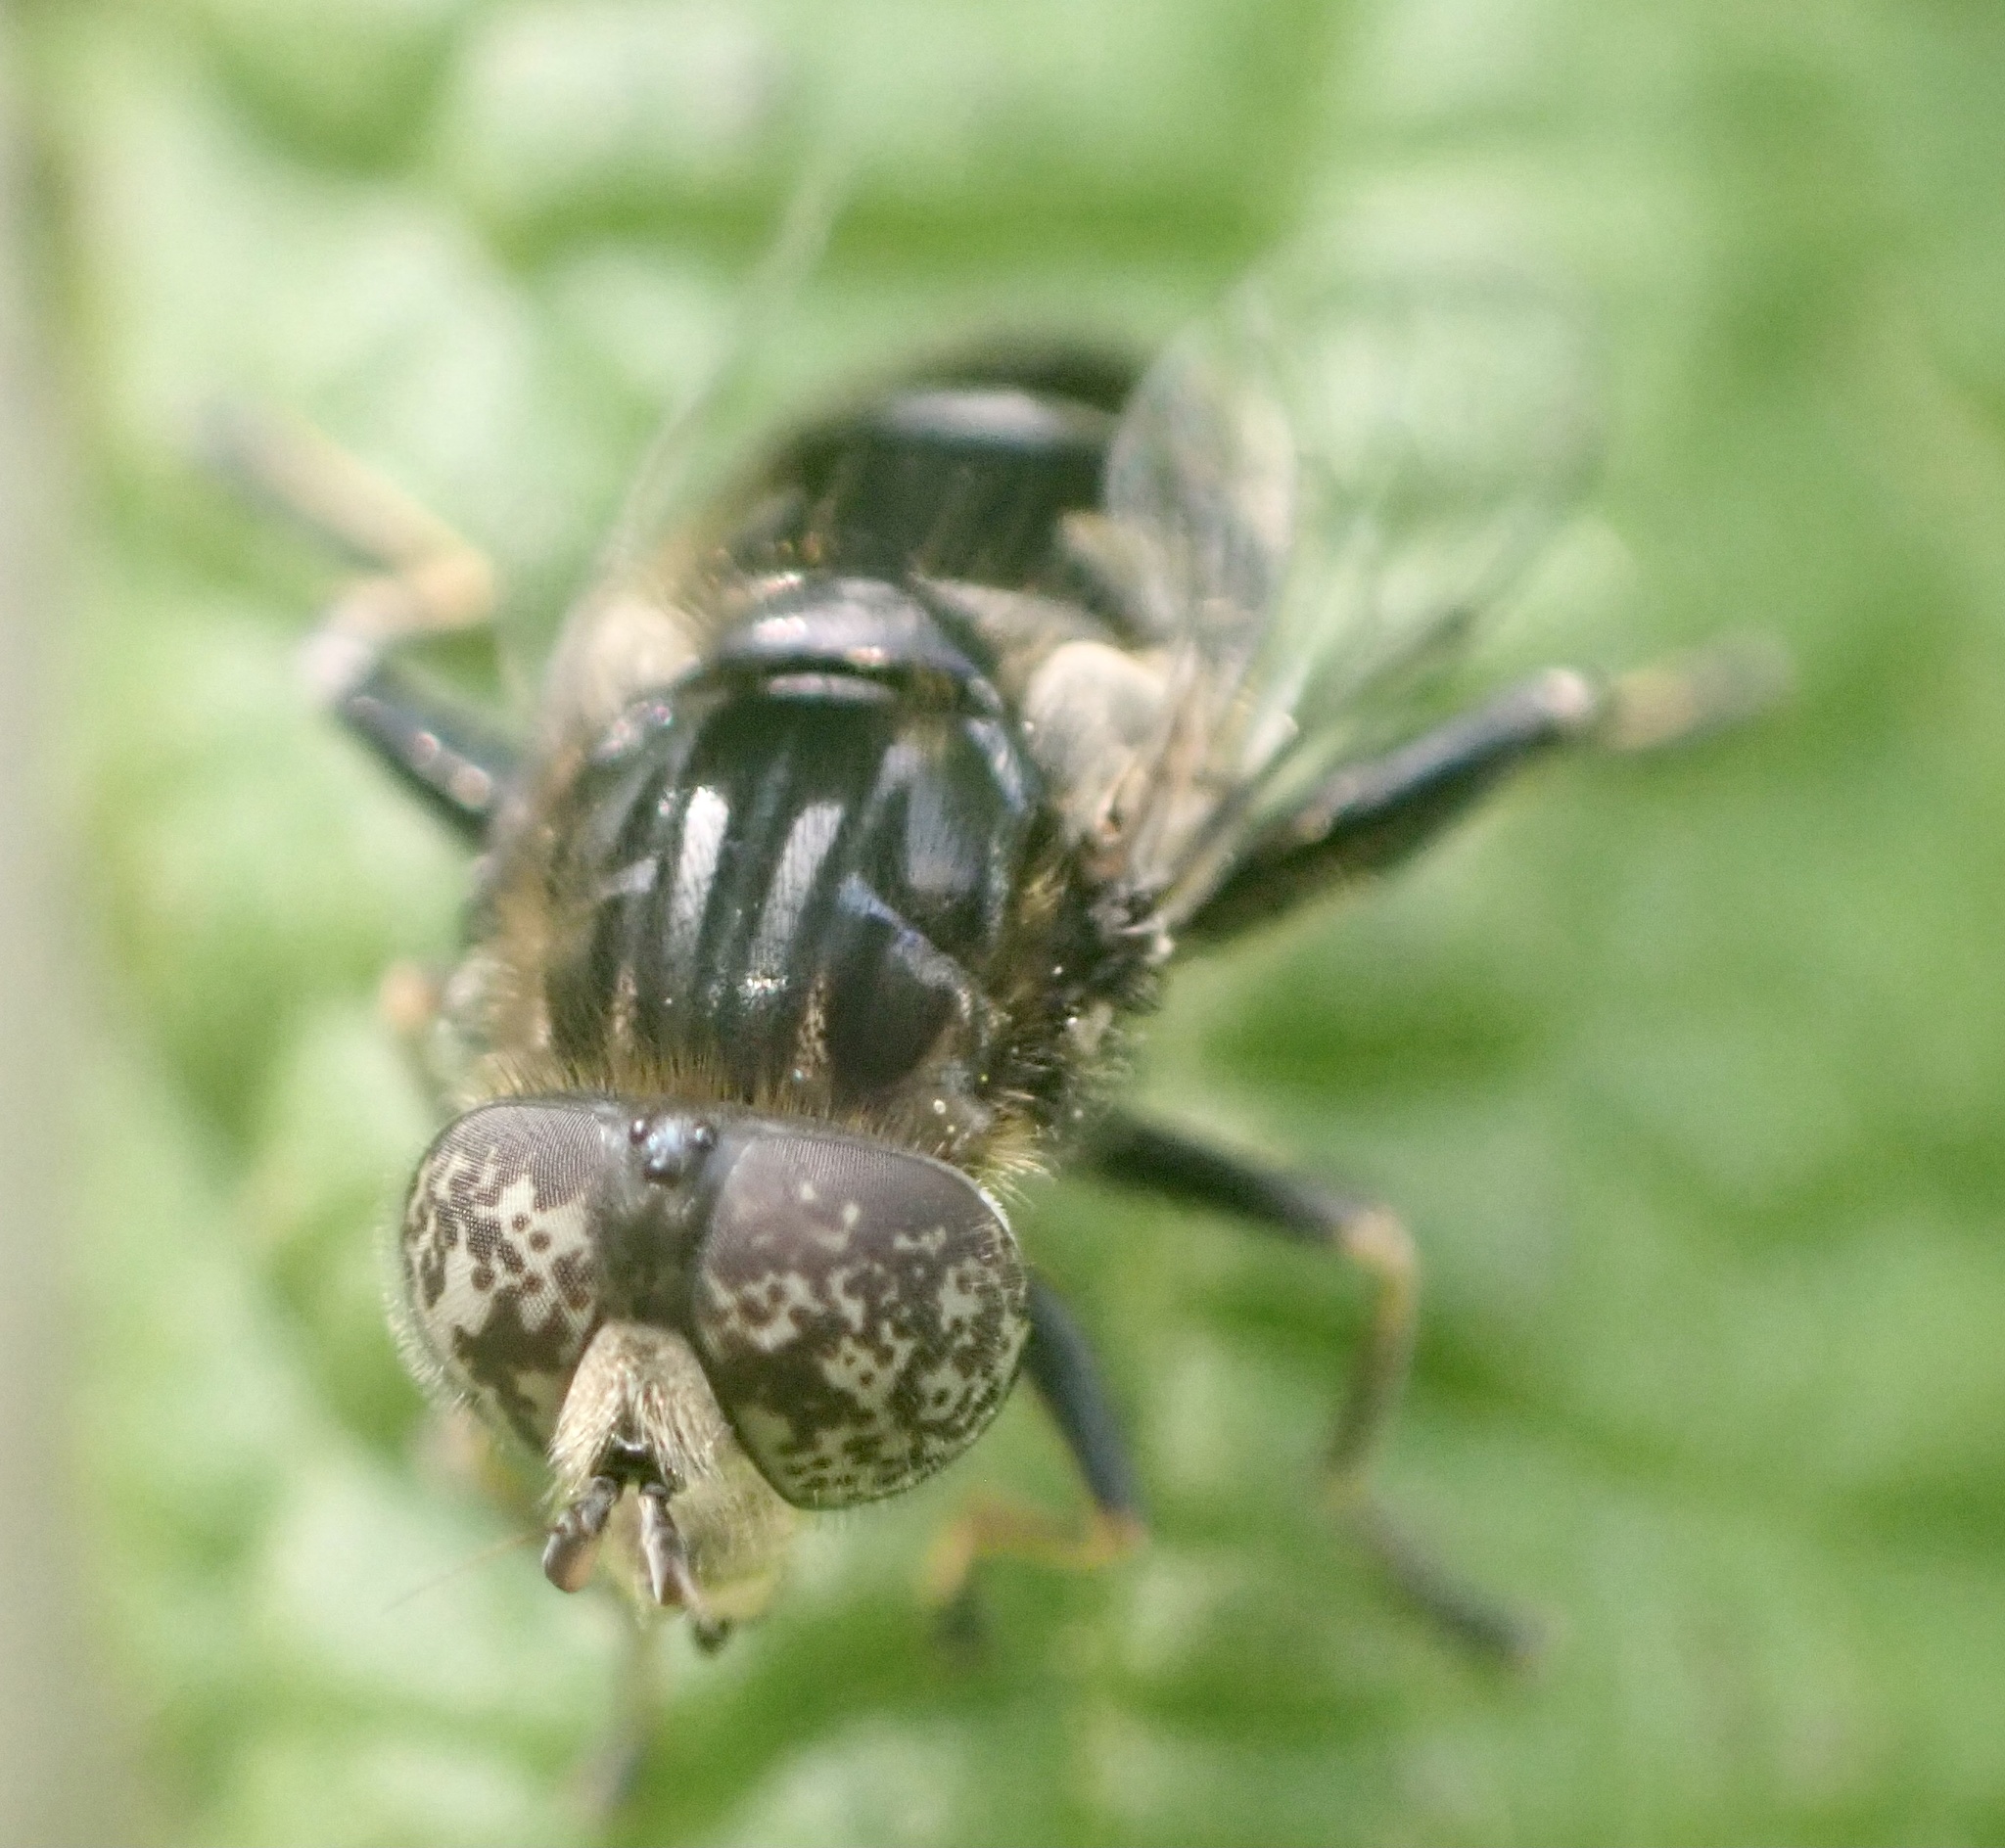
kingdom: Animalia
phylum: Arthropoda
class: Insecta
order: Diptera
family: Syrphidae
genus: Eristalinus
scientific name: Eristalinus sepulchralis
